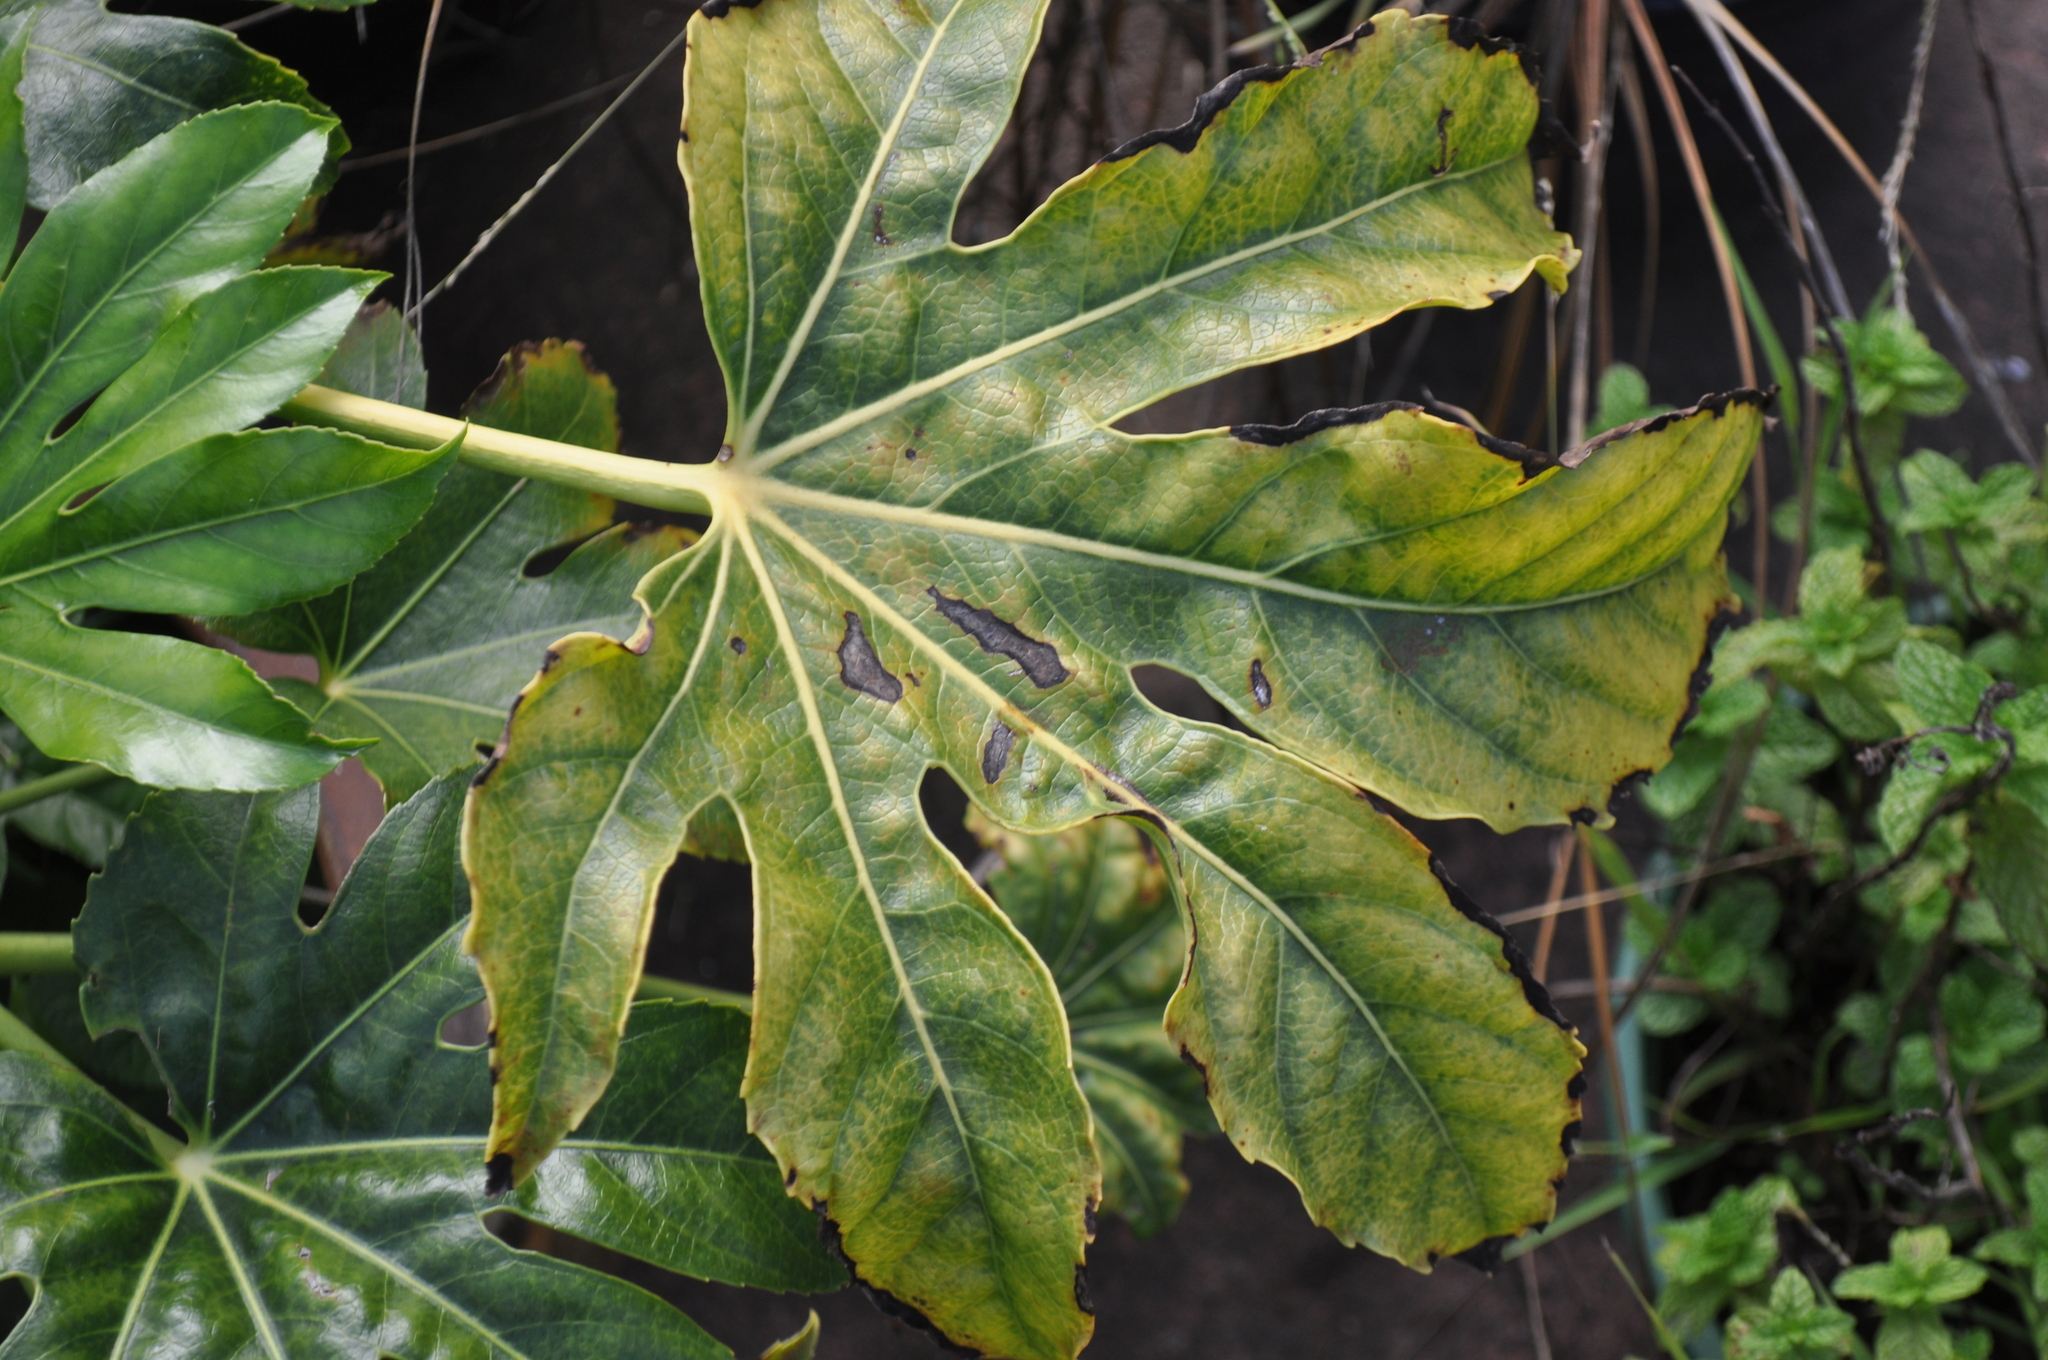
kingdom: Plantae
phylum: Tracheophyta
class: Magnoliopsida
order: Apiales
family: Araliaceae
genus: Fatsia
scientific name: Fatsia japonica
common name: Fatsia
